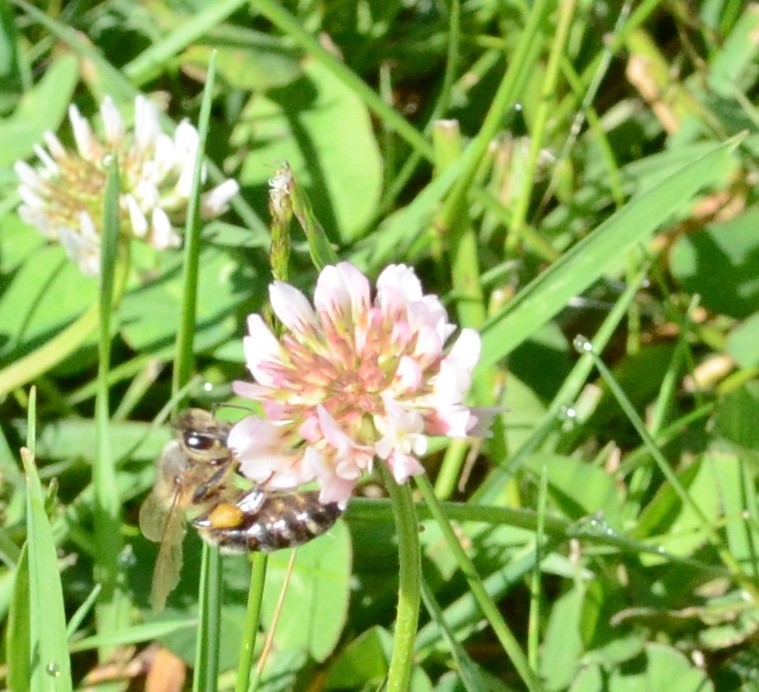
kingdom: Animalia
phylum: Arthropoda
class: Insecta
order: Hymenoptera
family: Apidae
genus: Apis
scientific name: Apis mellifera
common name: Honey bee
